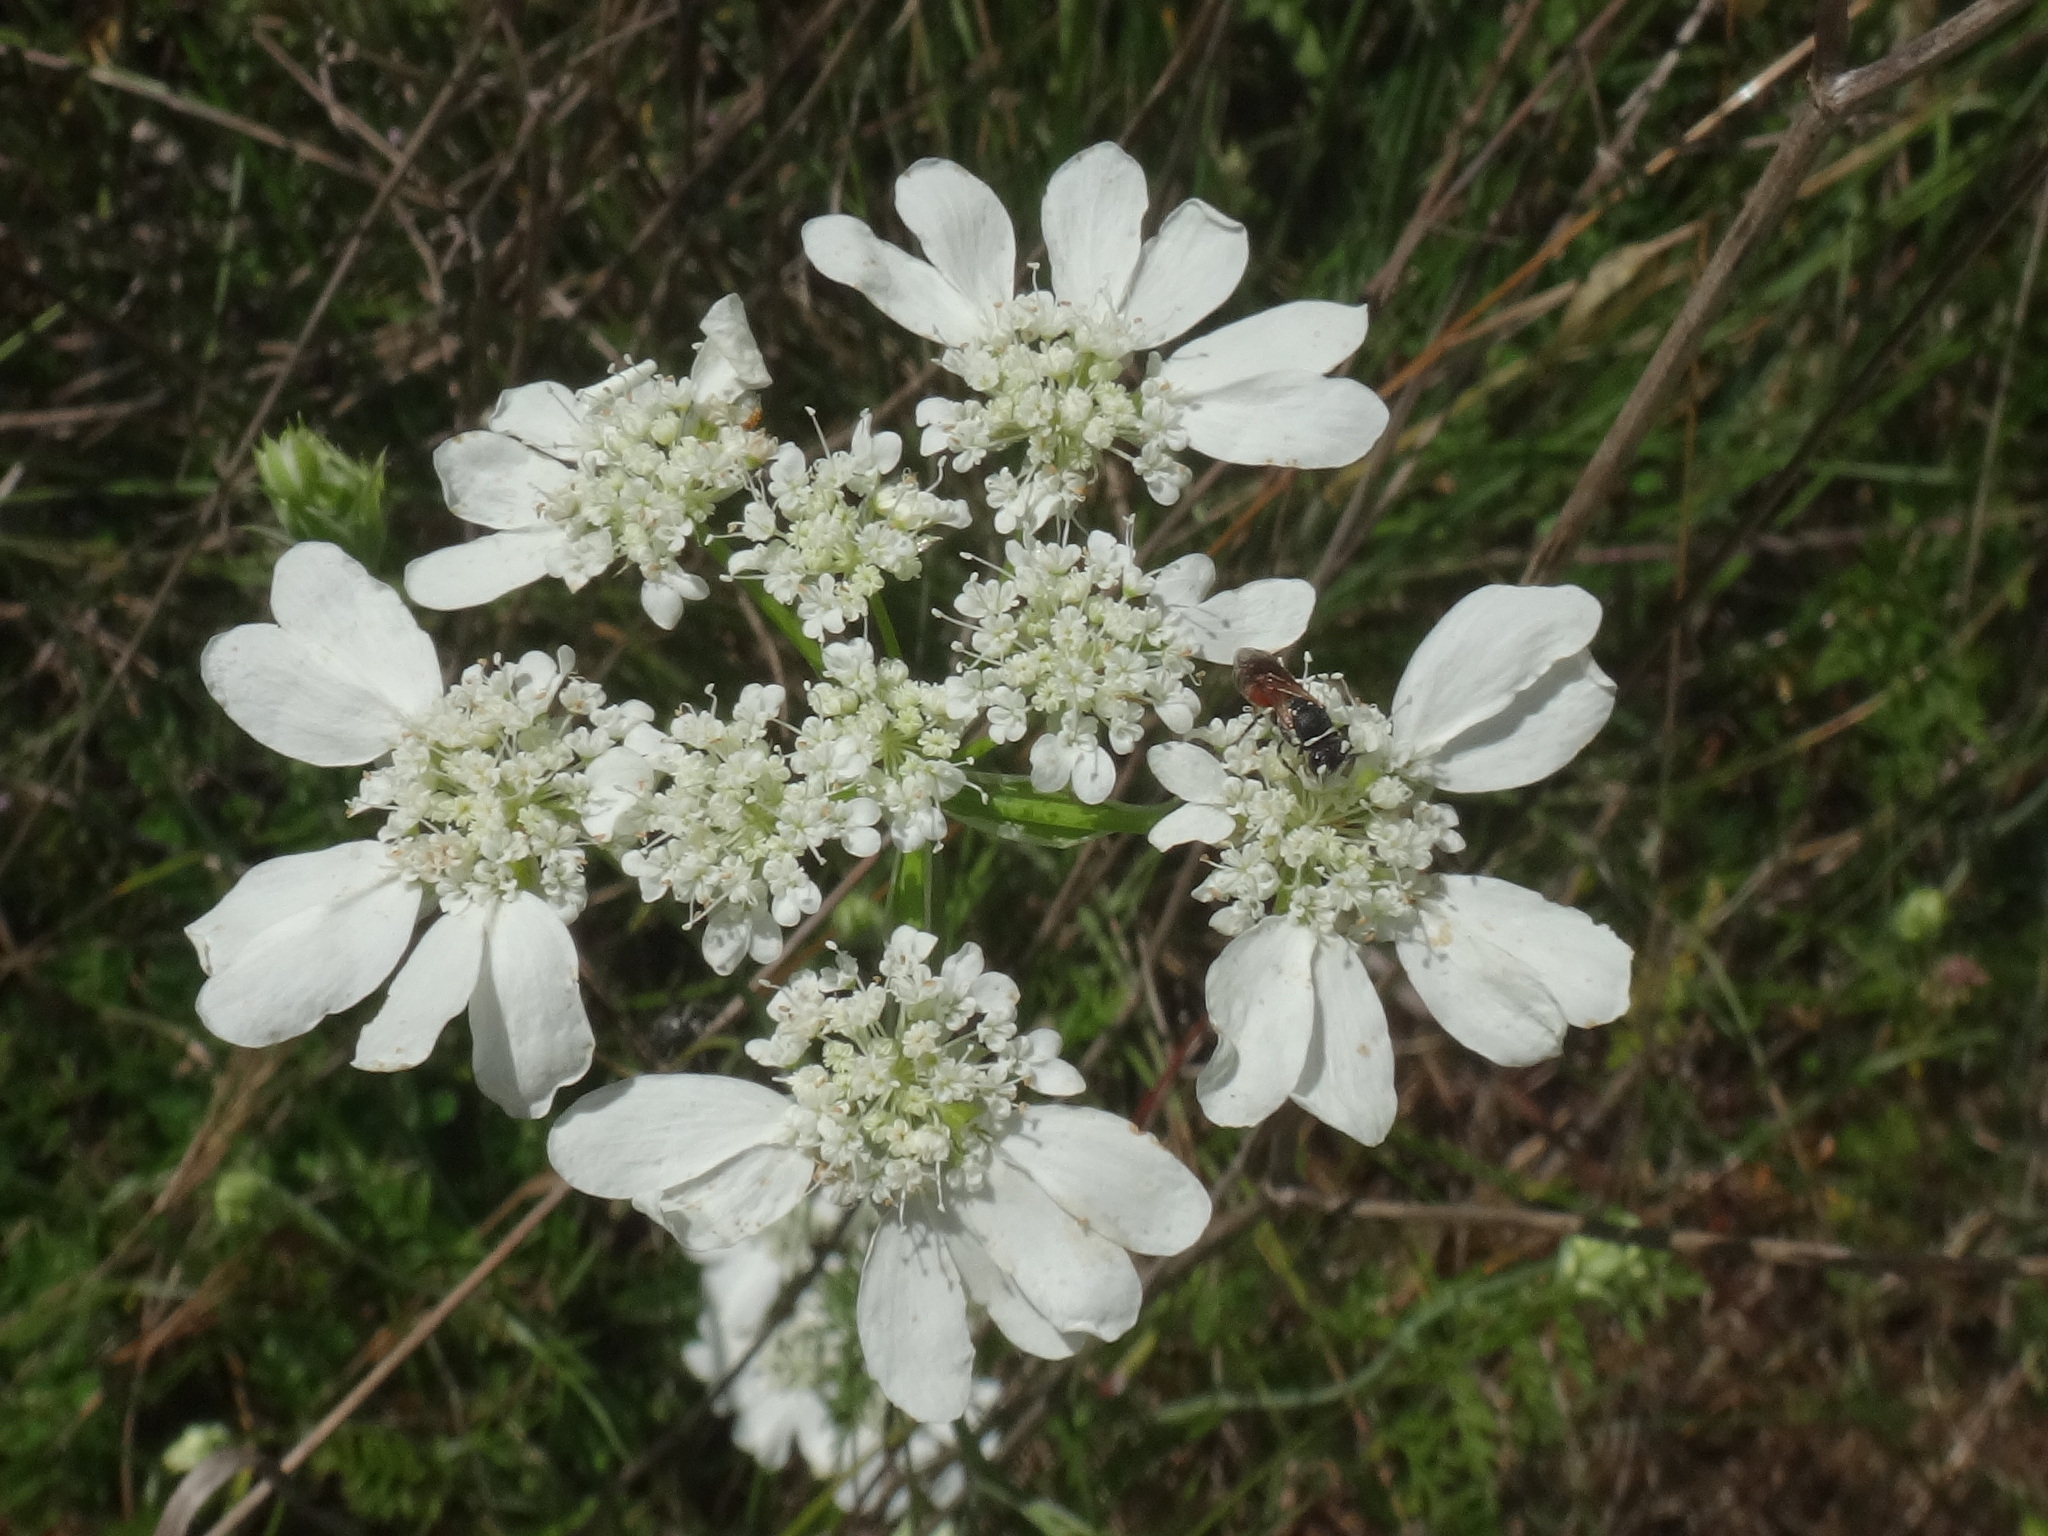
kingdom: Plantae
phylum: Tracheophyta
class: Magnoliopsida
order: Apiales
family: Apiaceae
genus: Orlaya
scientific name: Orlaya grandiflora
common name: White lace flower
